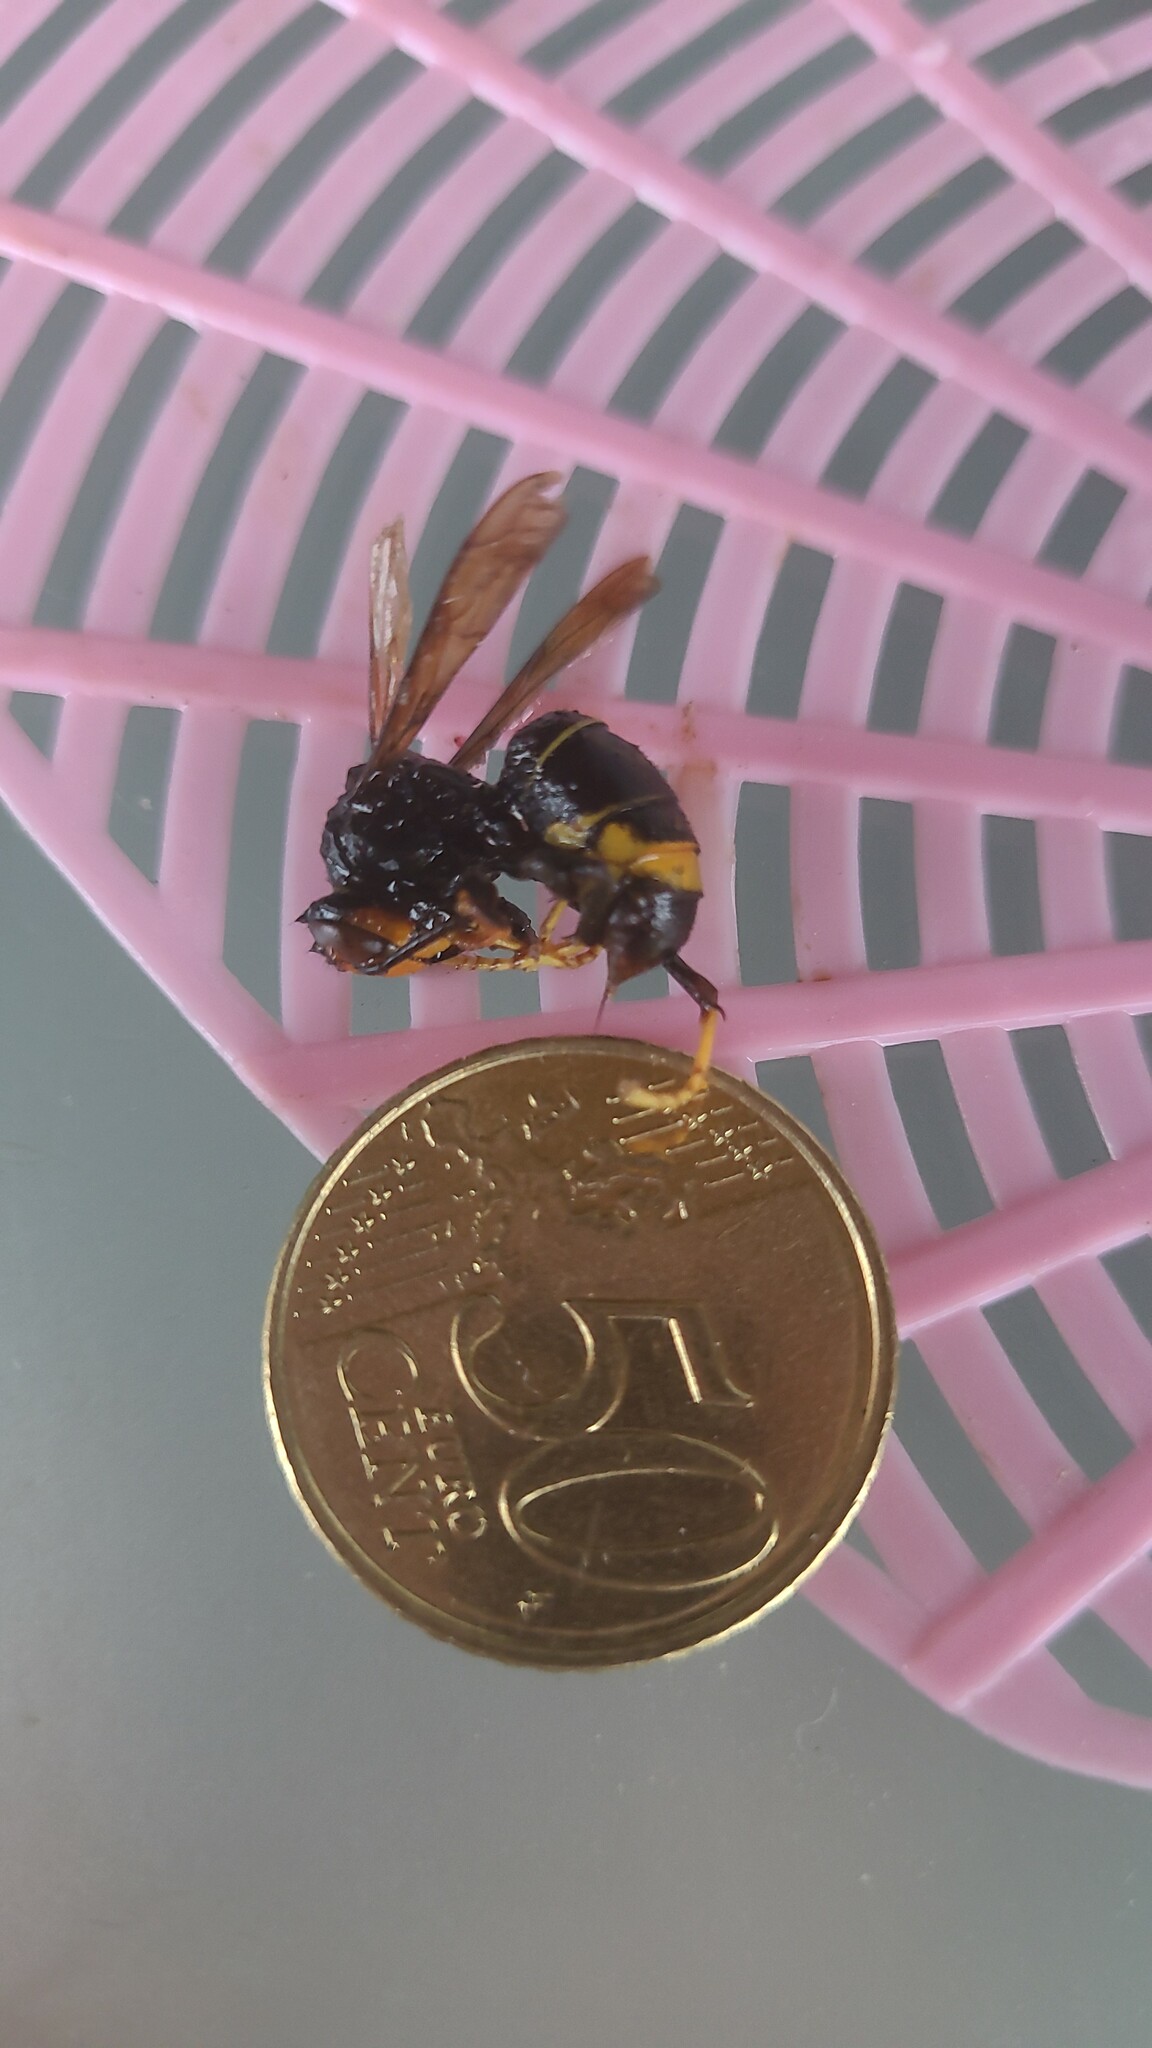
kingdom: Animalia
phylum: Arthropoda
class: Insecta
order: Hymenoptera
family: Vespidae
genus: Vespa
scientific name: Vespa velutina
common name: Asian hornet
